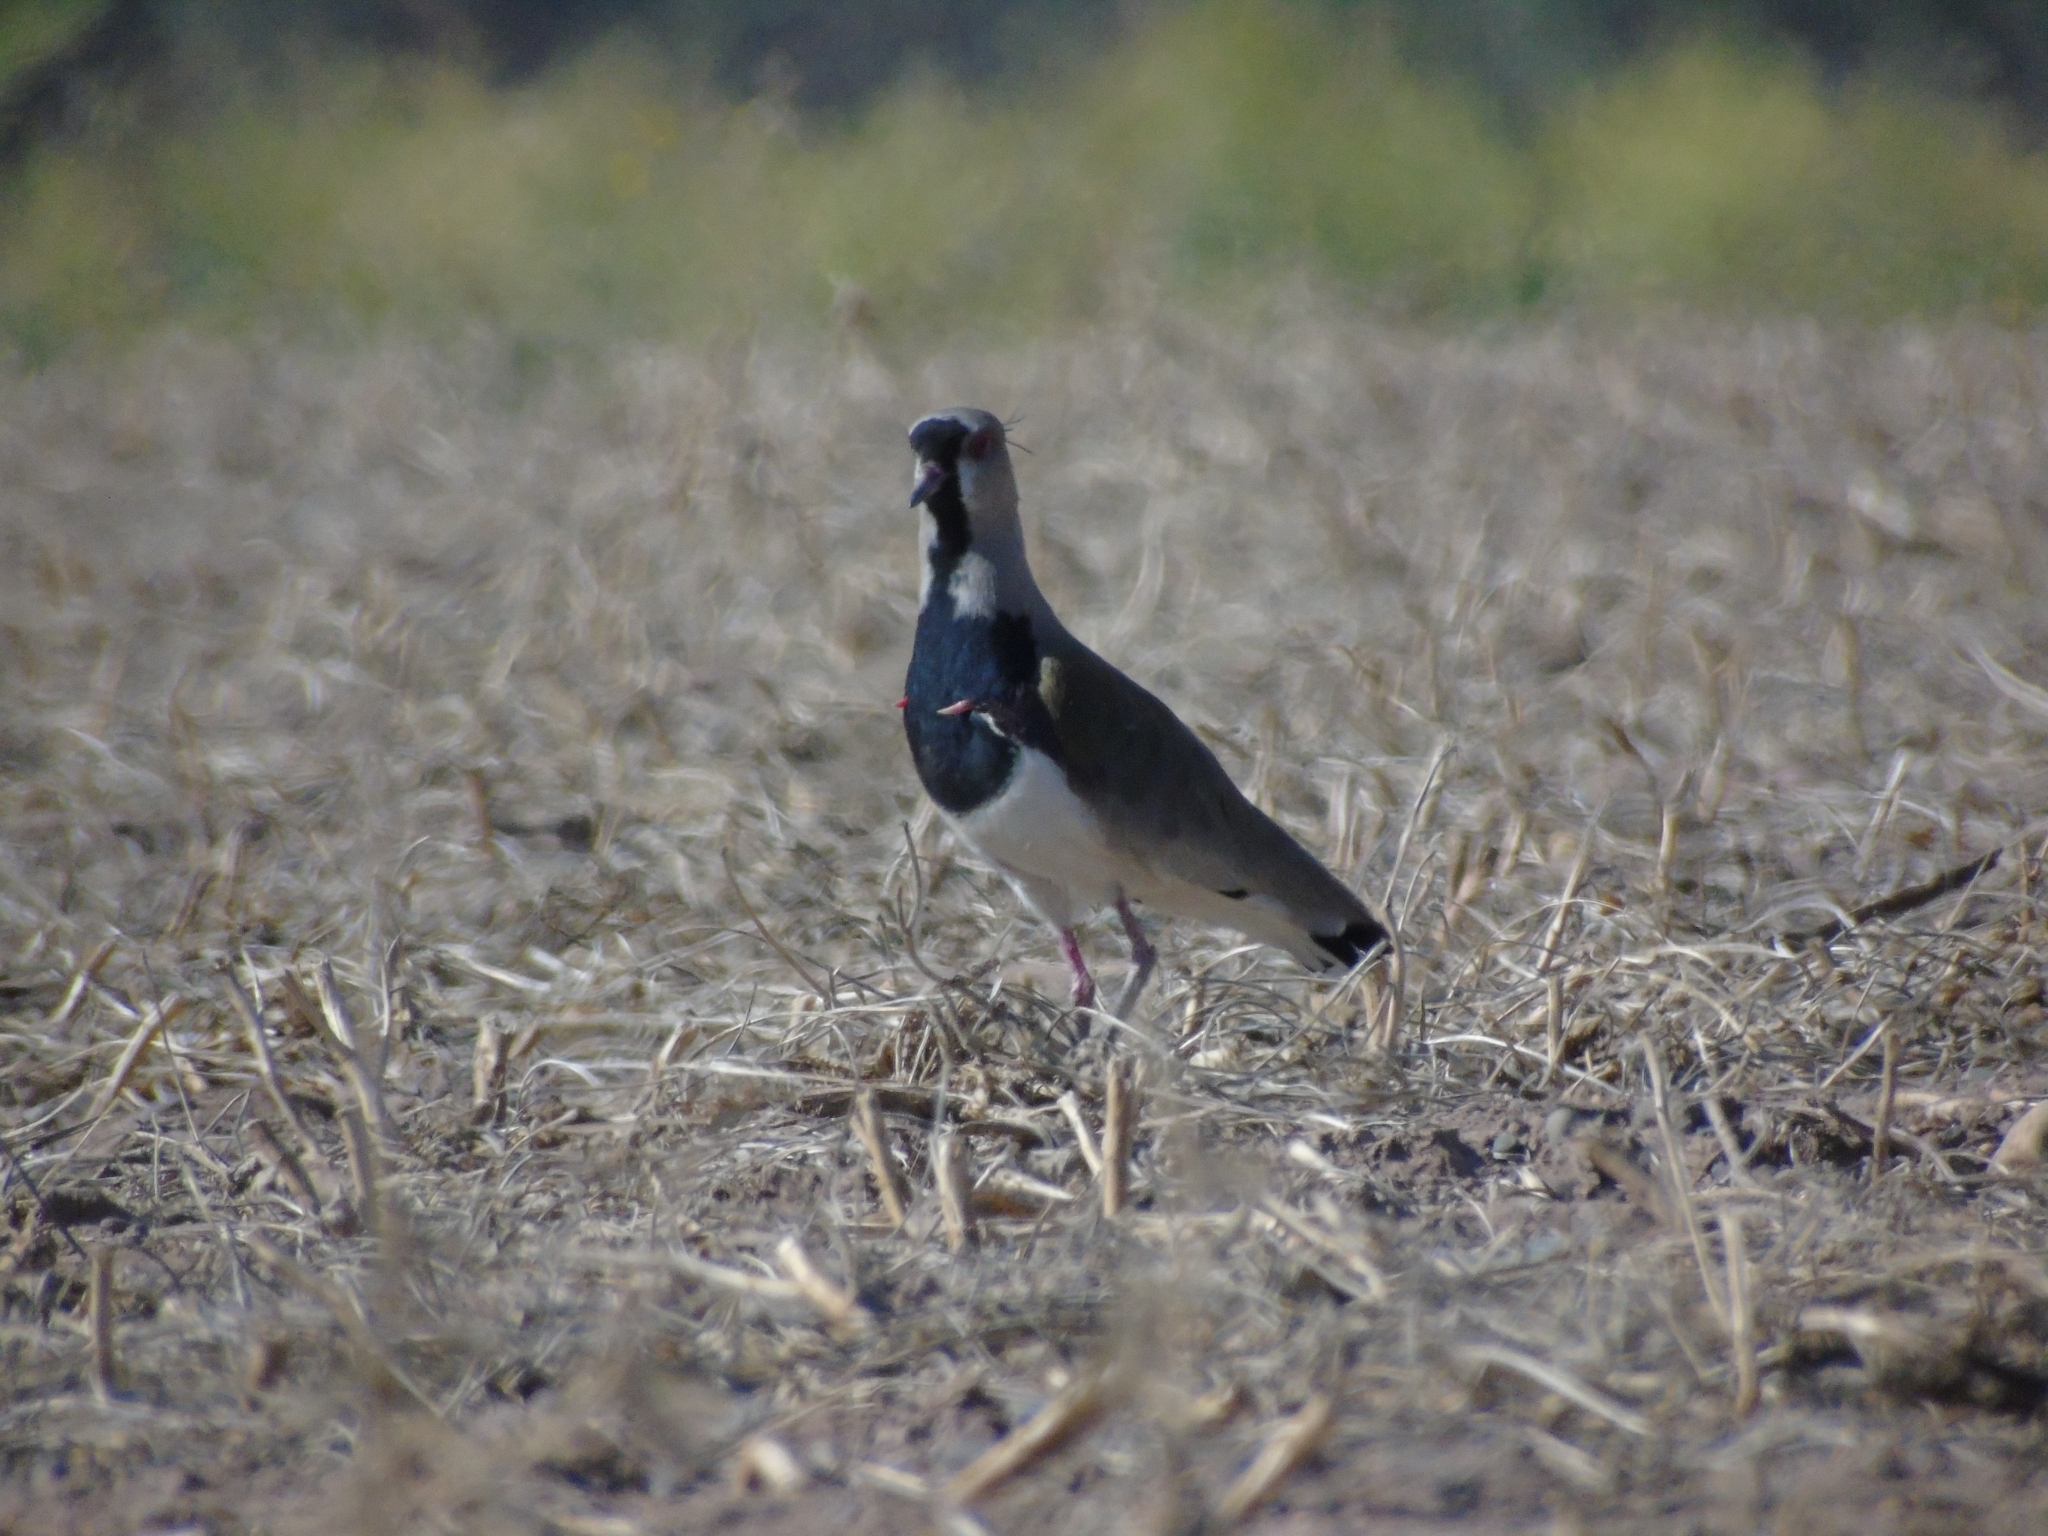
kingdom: Animalia
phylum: Chordata
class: Aves
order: Charadriiformes
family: Charadriidae
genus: Vanellus
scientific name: Vanellus chilensis
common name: Southern lapwing
